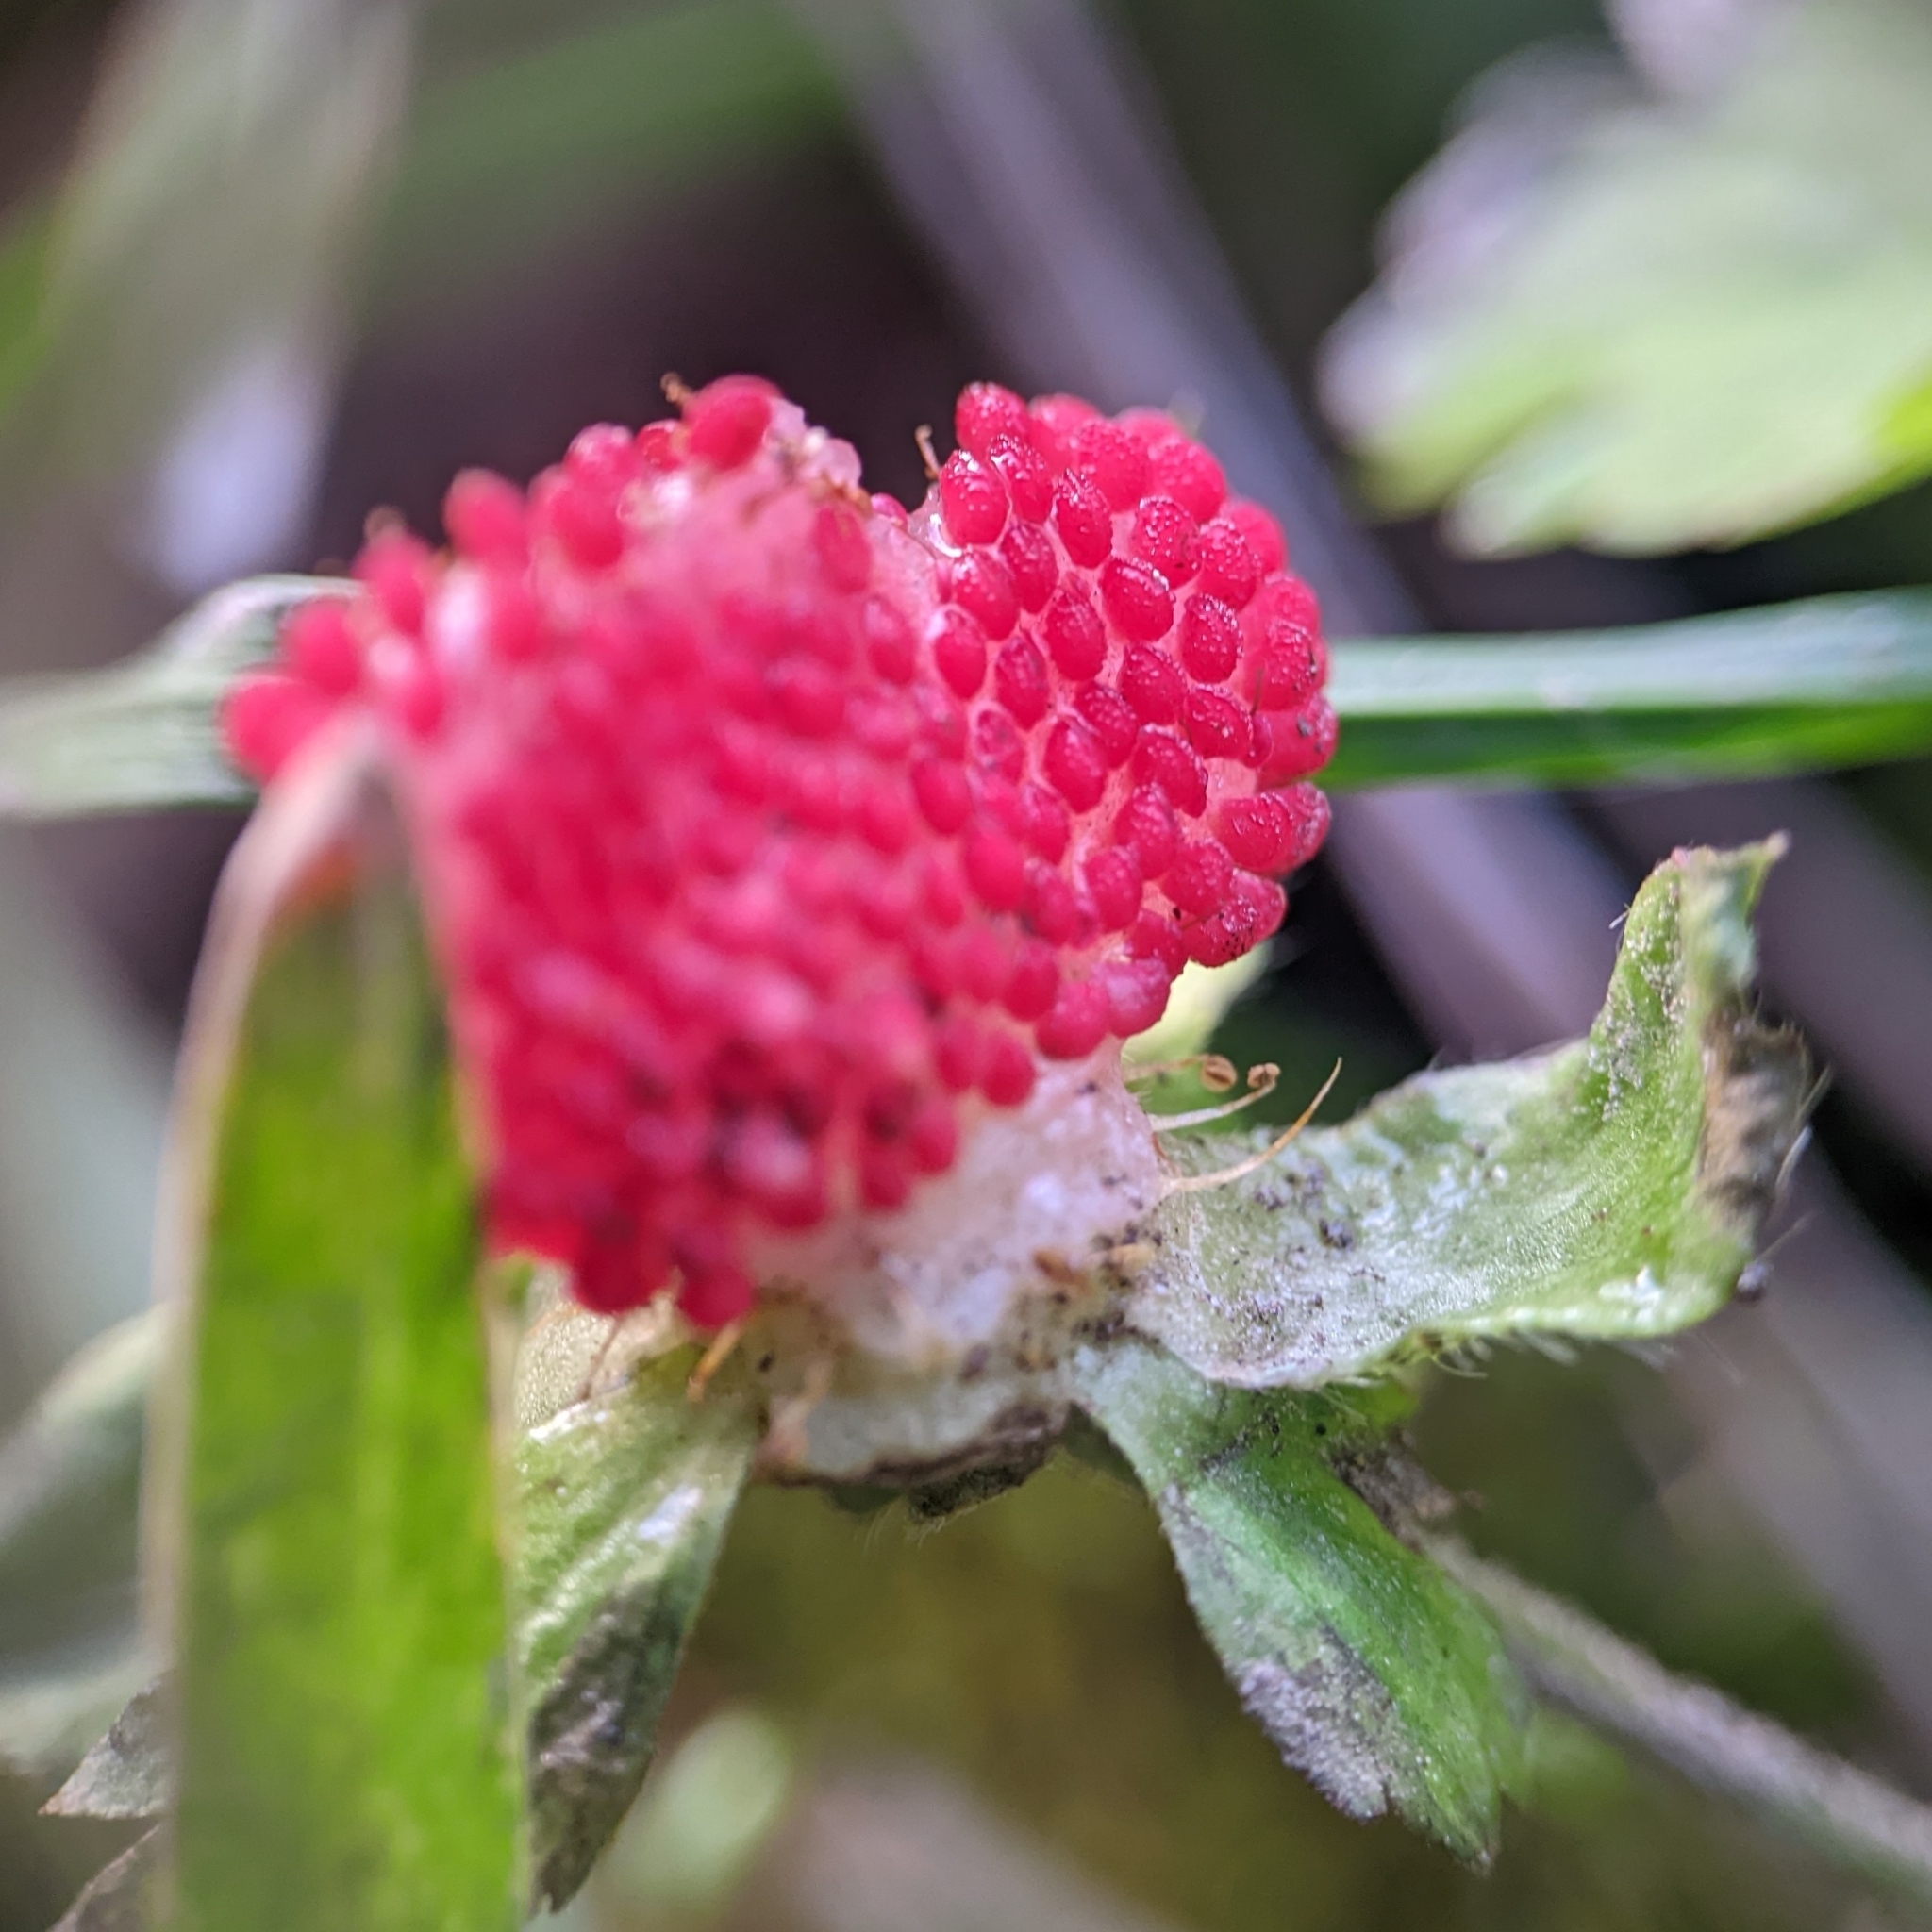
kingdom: Plantae
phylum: Tracheophyta
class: Magnoliopsida
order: Rosales
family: Rosaceae
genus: Potentilla
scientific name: Potentilla indica
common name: Yellow-flowered strawberry
